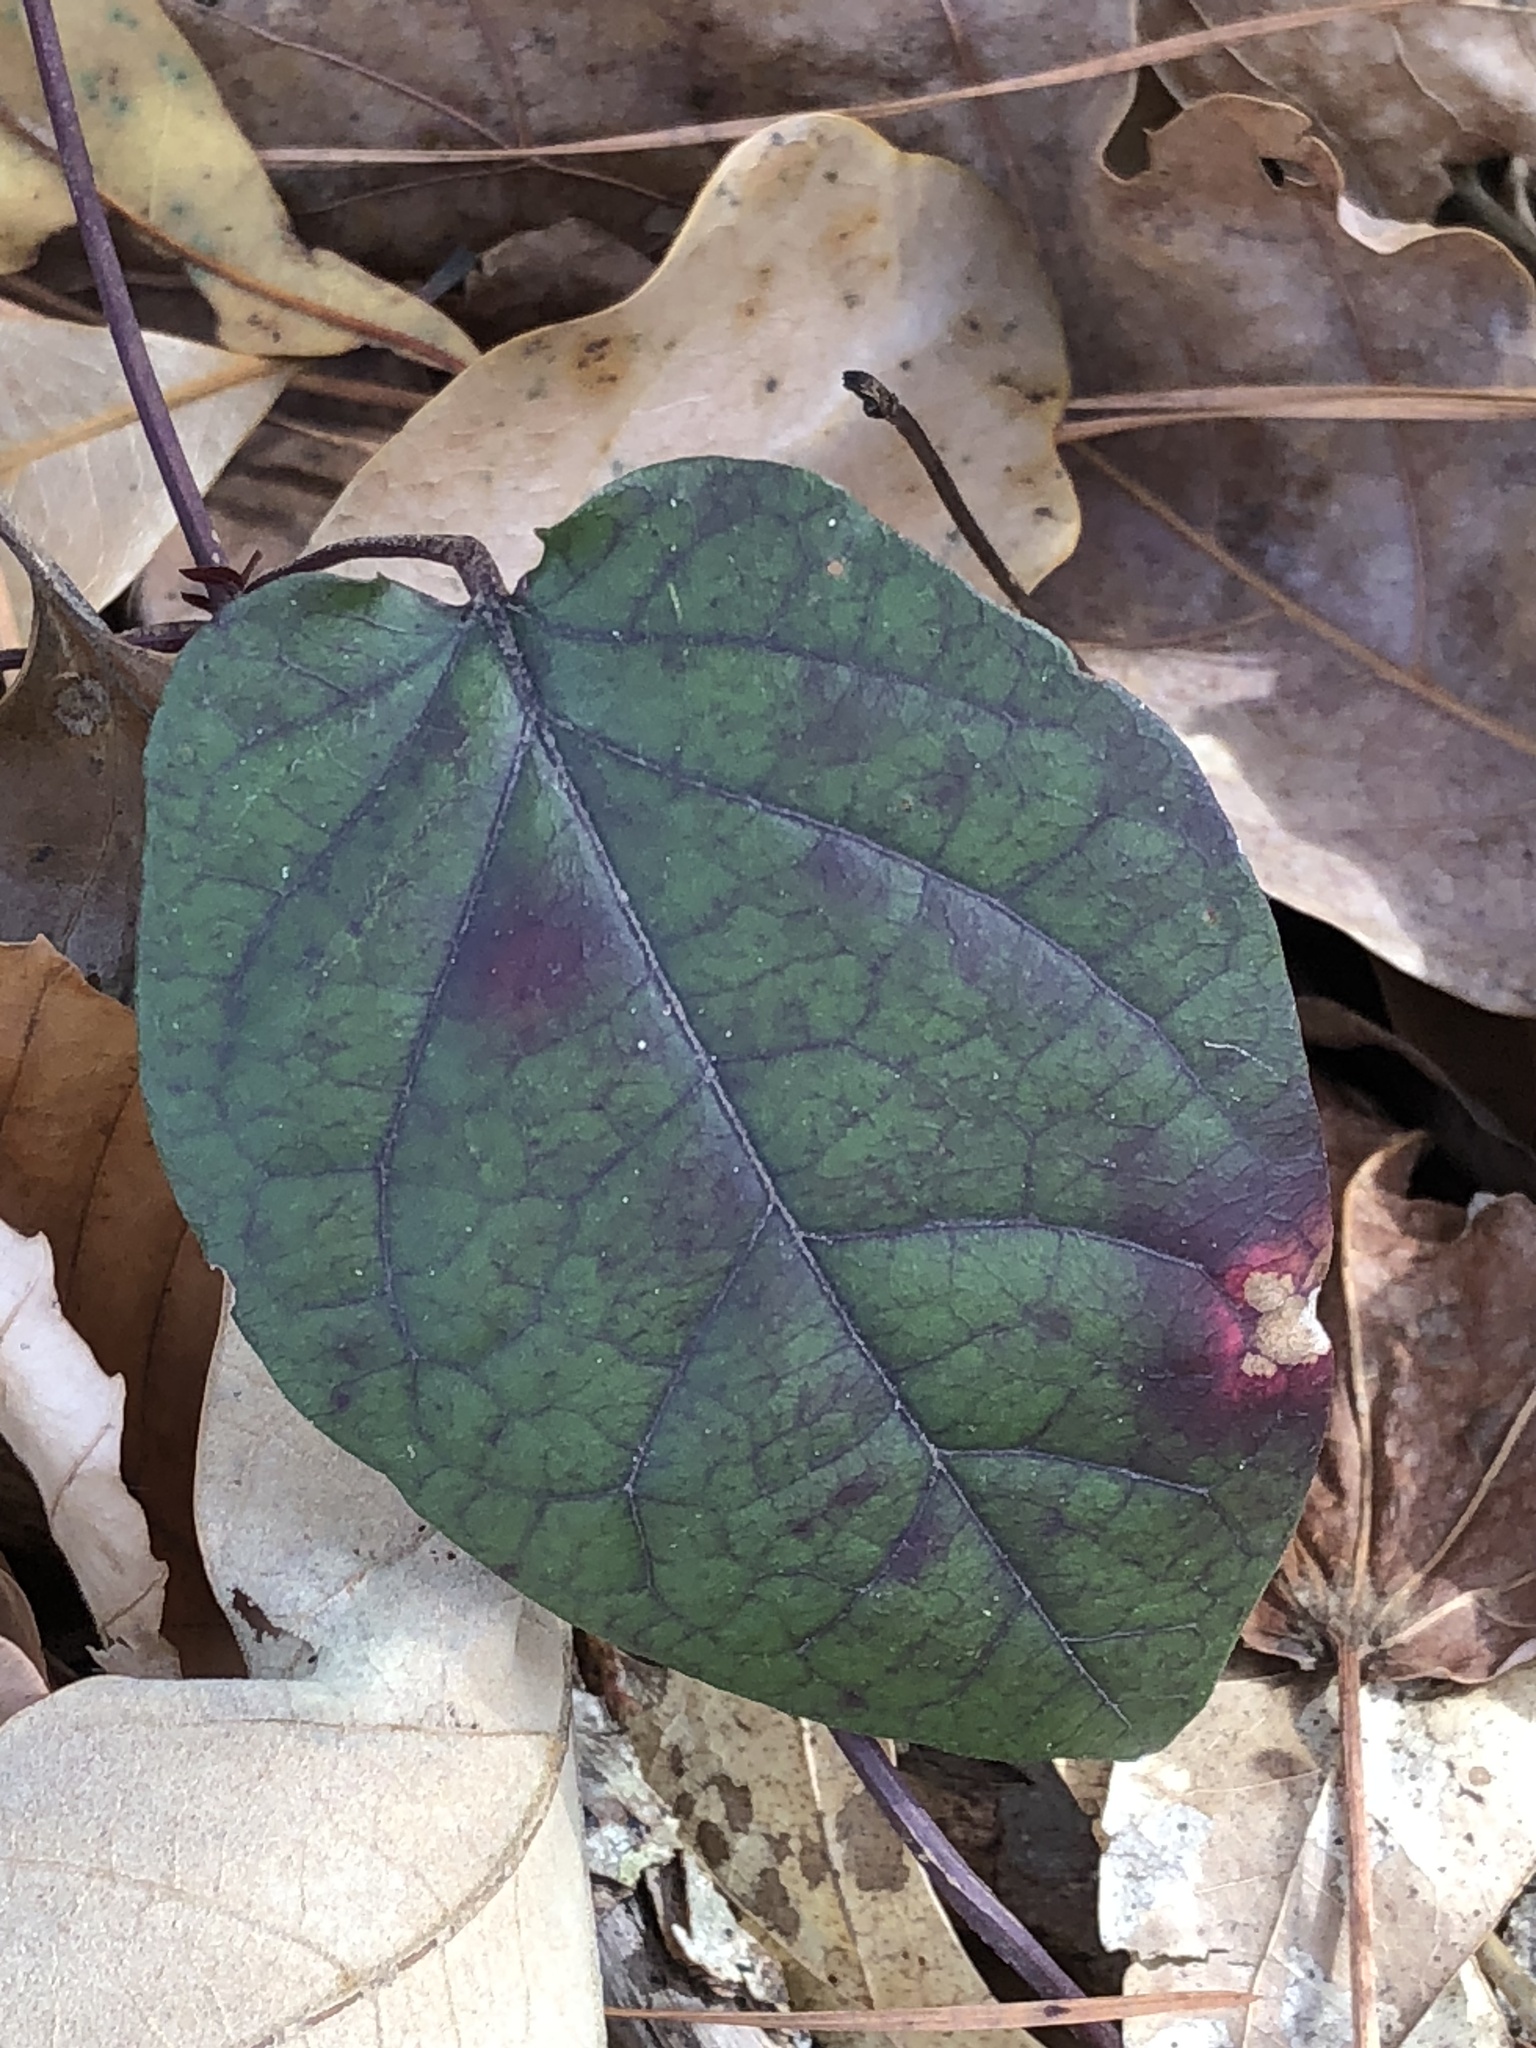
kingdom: Plantae
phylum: Tracheophyta
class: Magnoliopsida
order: Lamiales
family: Bignoniaceae
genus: Bignonia
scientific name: Bignonia capreolata
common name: Crossvine
